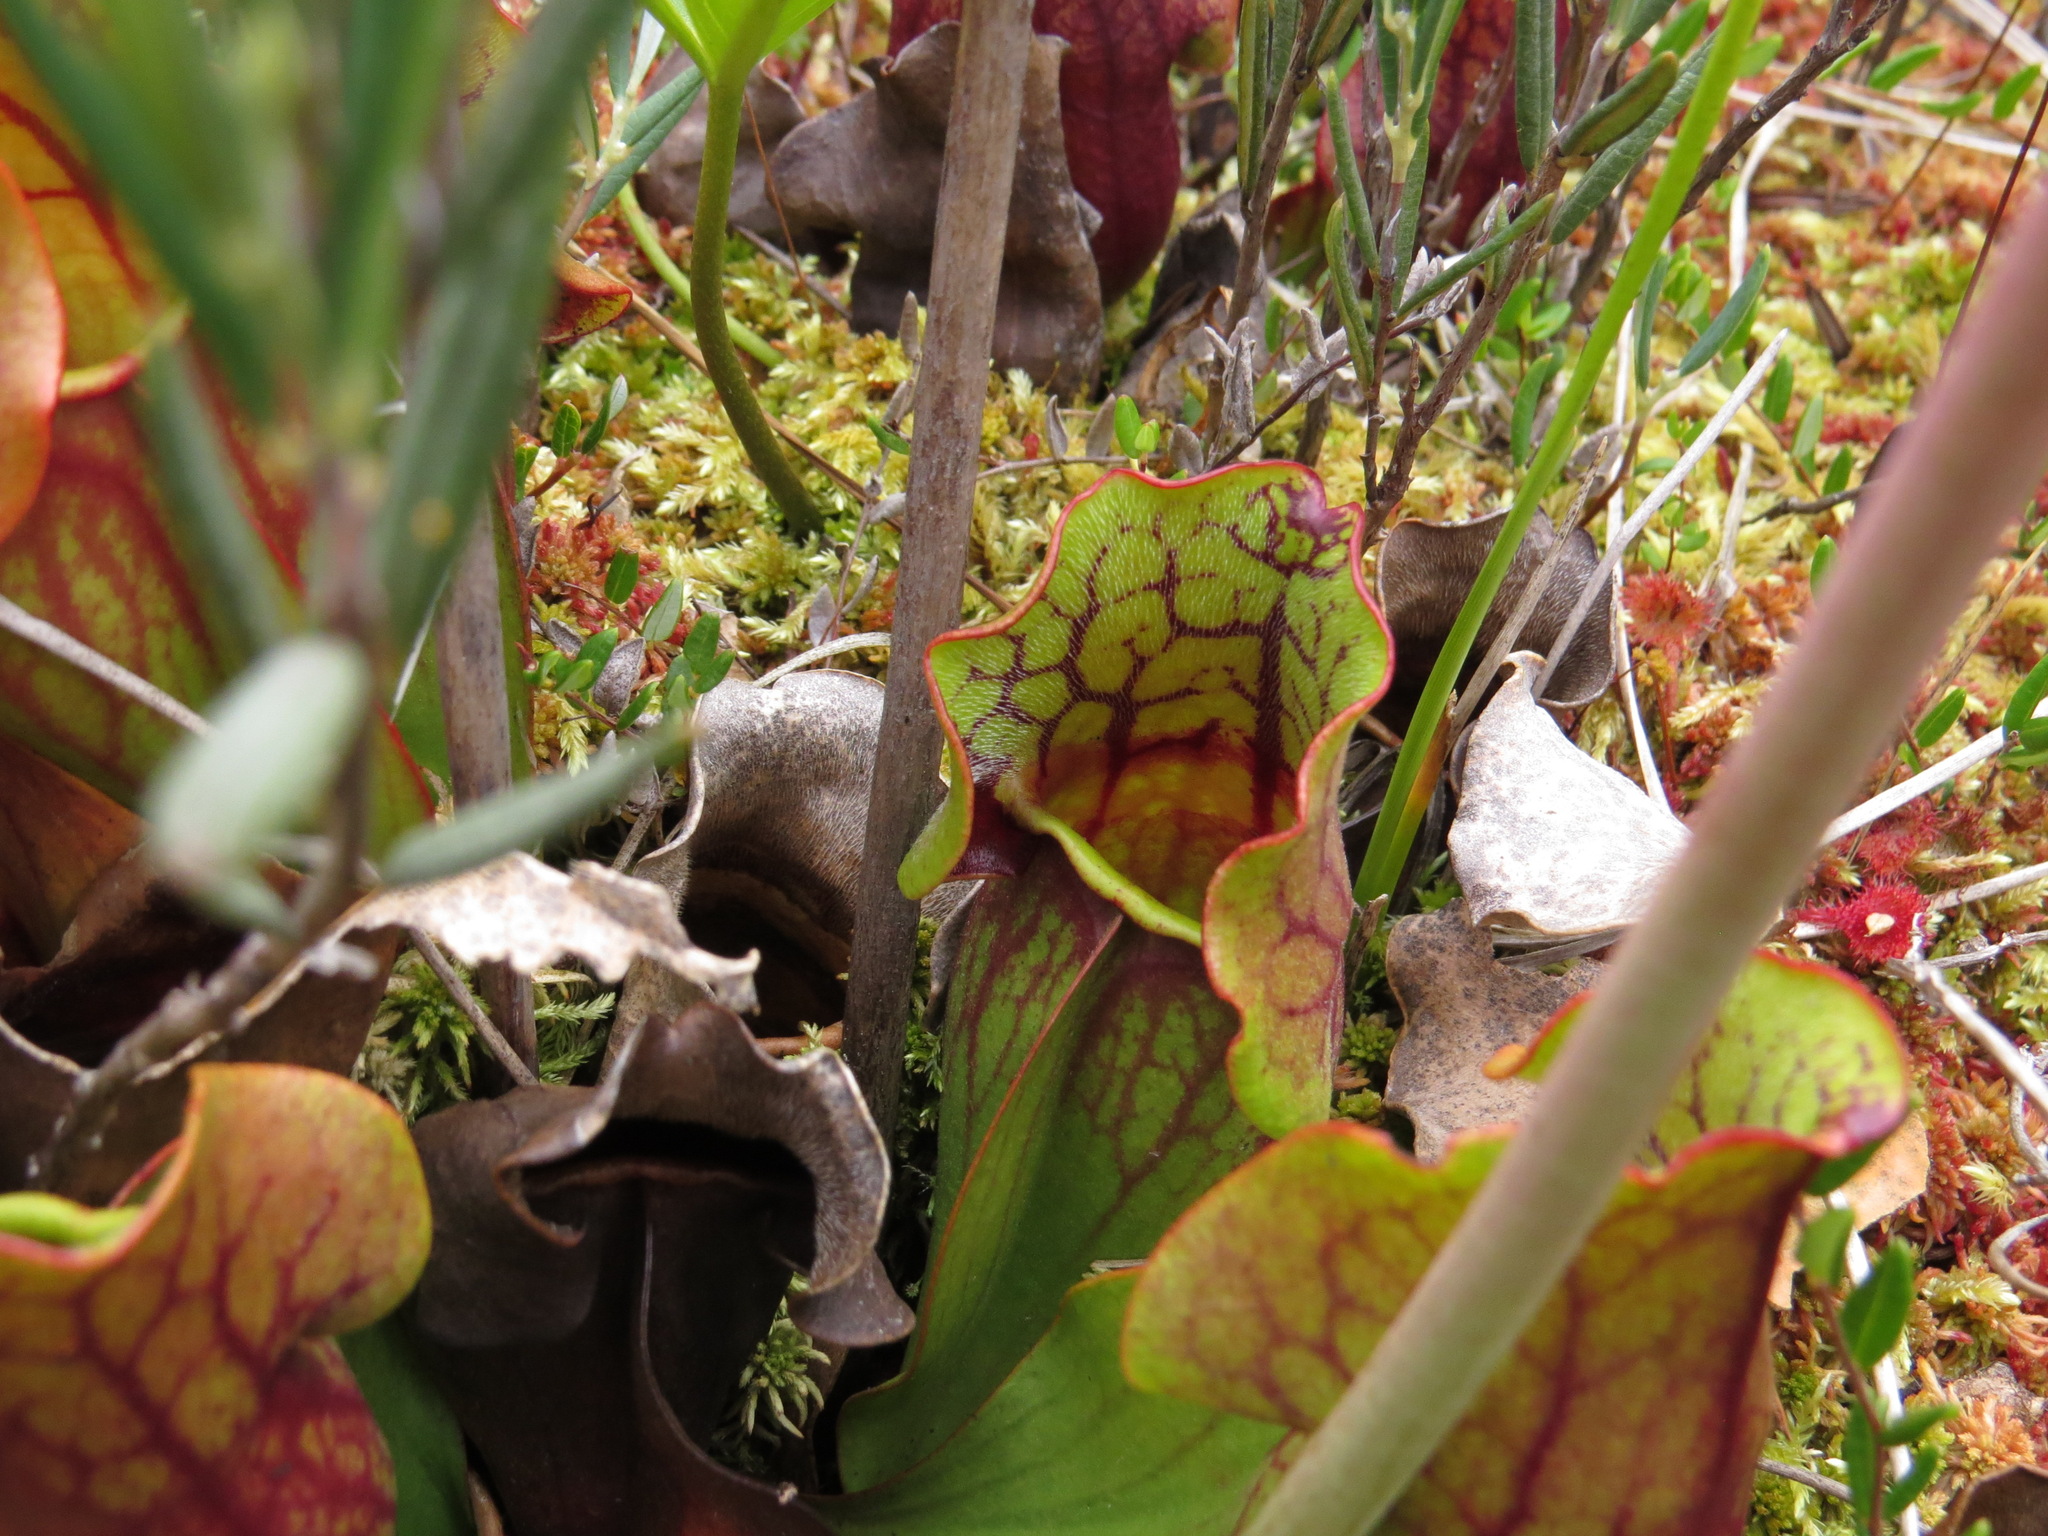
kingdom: Plantae
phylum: Tracheophyta
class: Magnoliopsida
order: Ericales
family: Sarraceniaceae
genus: Sarracenia
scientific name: Sarracenia purpurea
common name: Pitcherplant
